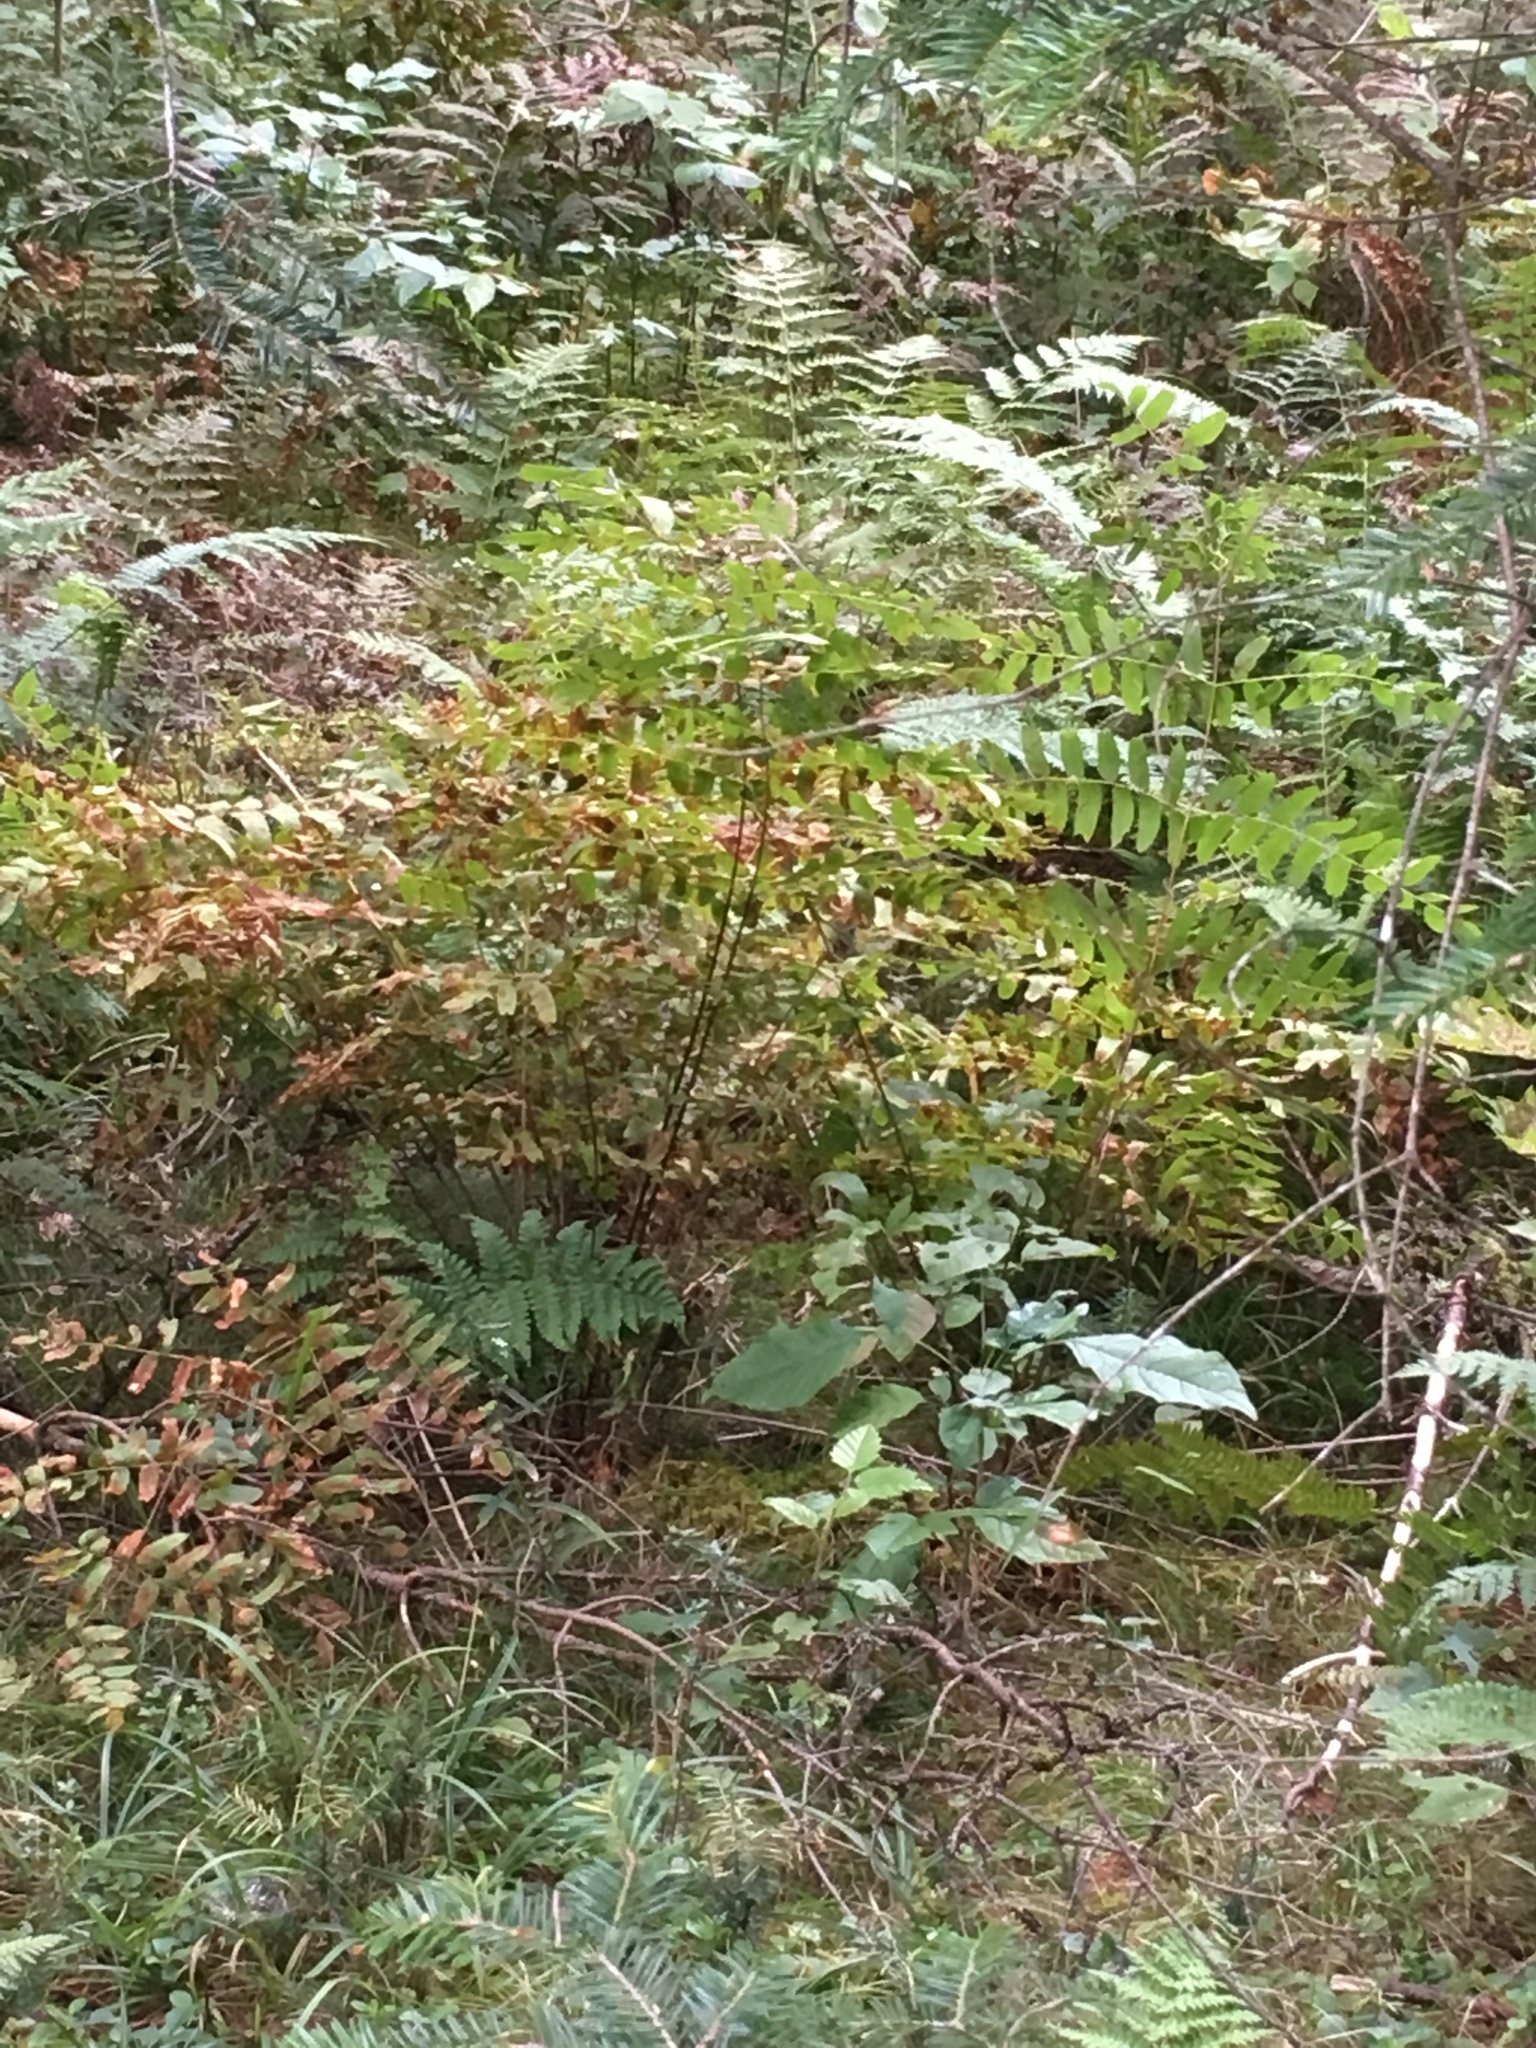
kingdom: Plantae
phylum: Tracheophyta
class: Polypodiopsida
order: Osmundales
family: Osmundaceae
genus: Osmunda
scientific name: Osmunda spectabilis
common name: American royal fern
